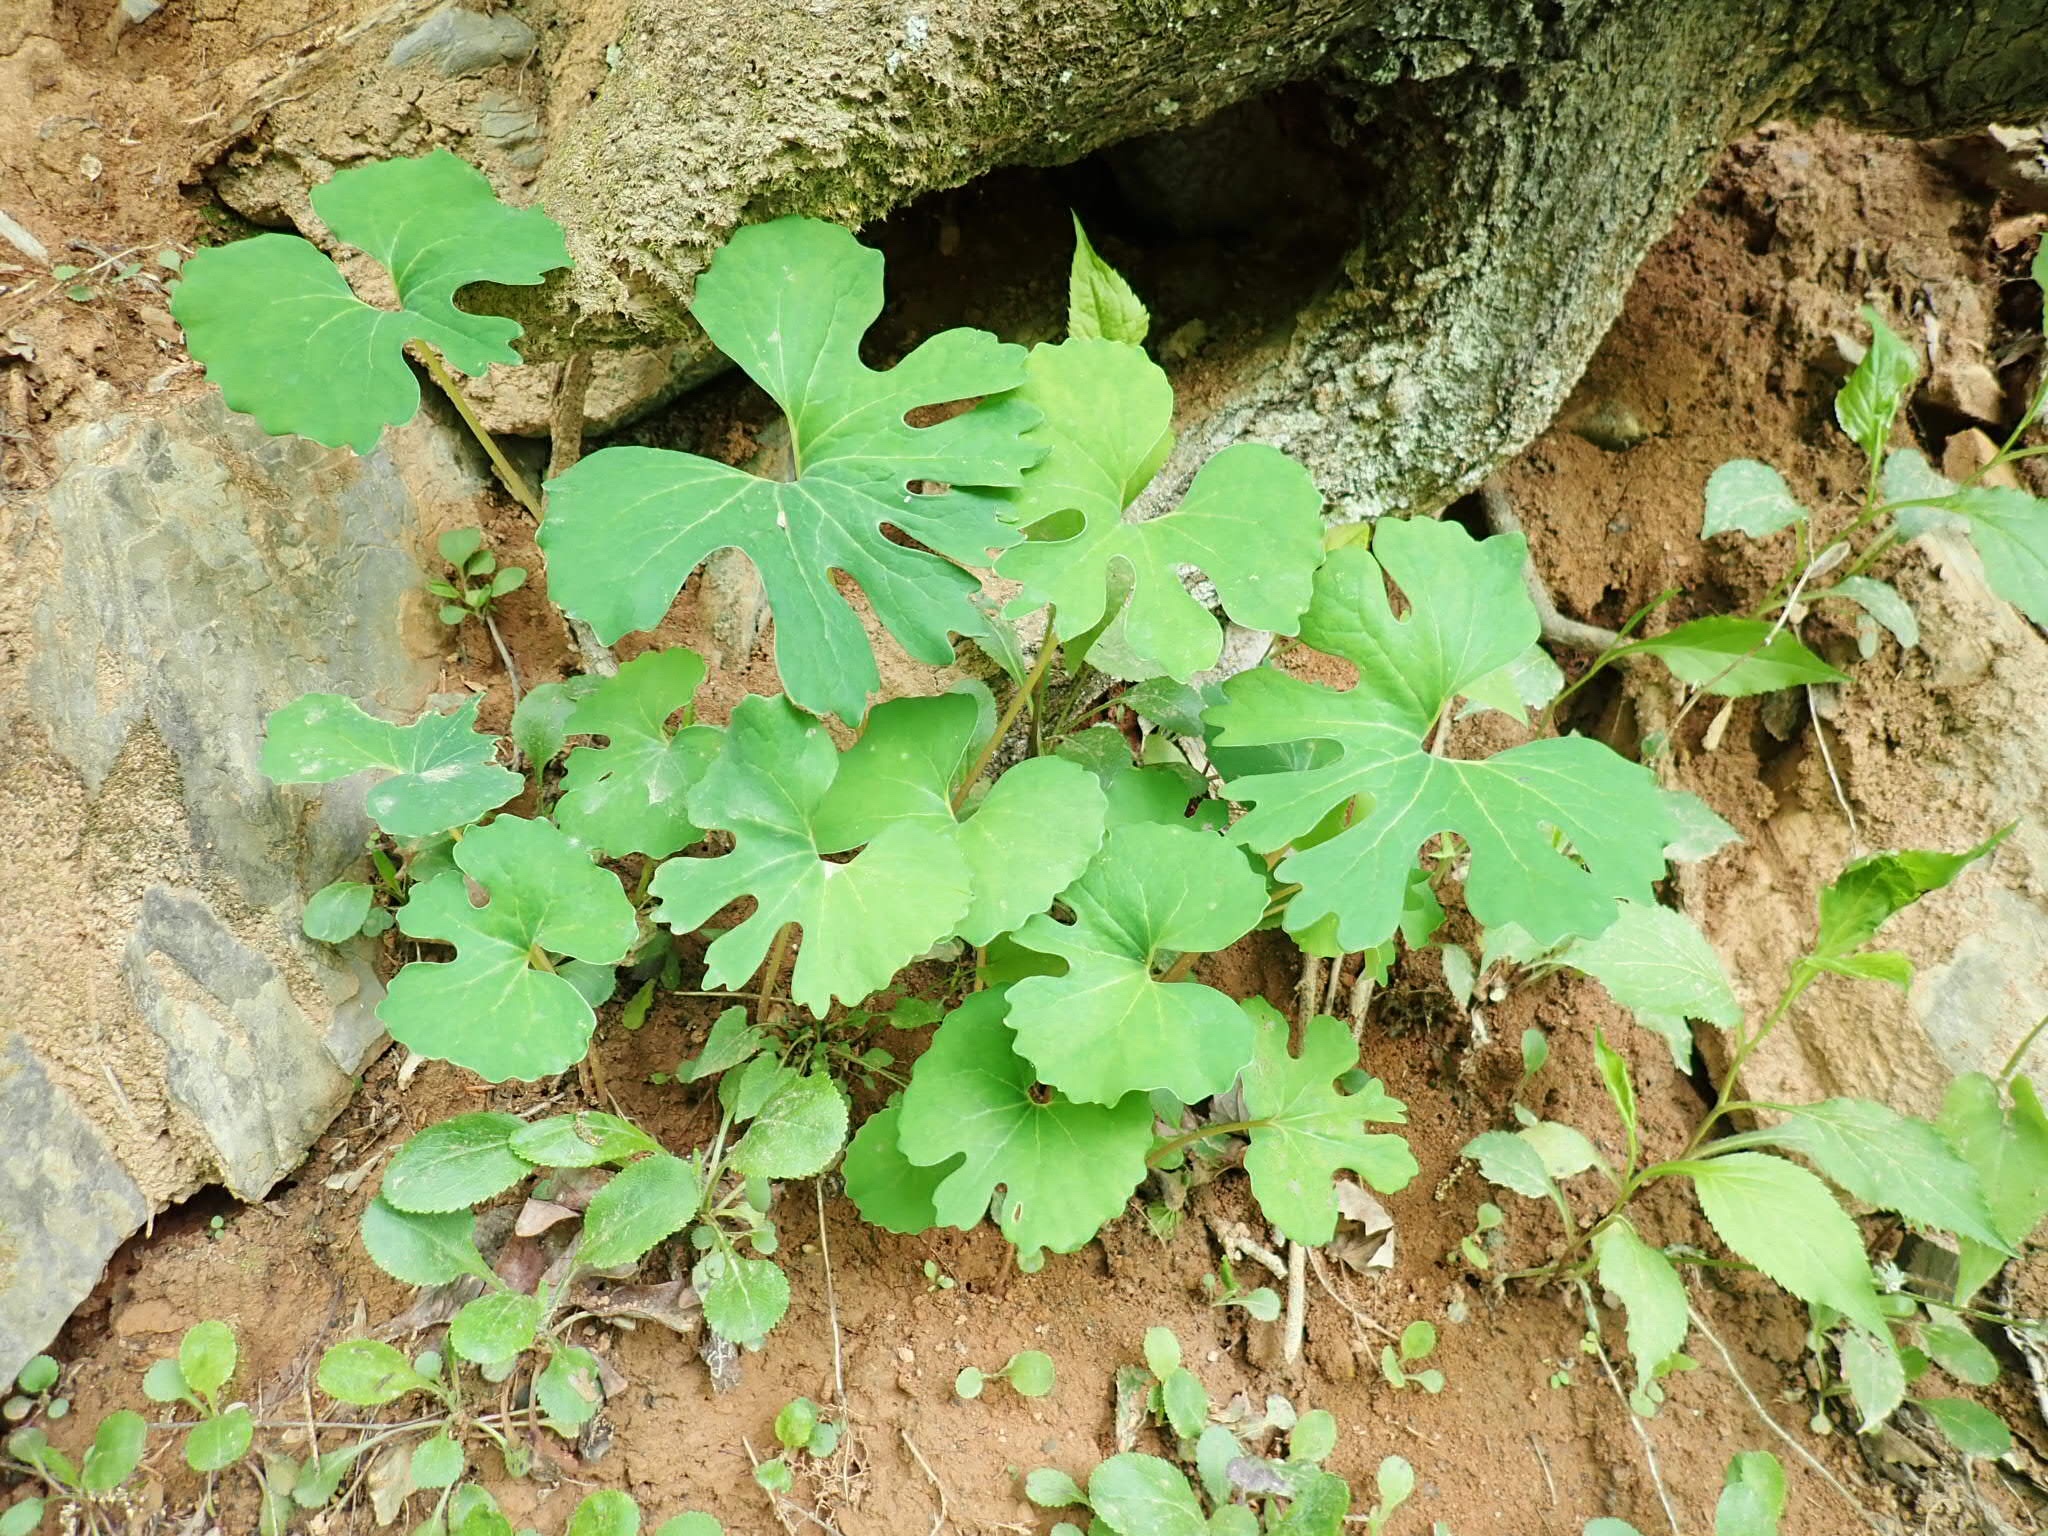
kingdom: Plantae
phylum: Tracheophyta
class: Magnoliopsida
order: Ranunculales
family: Papaveraceae
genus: Sanguinaria
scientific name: Sanguinaria canadensis
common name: Bloodroot
